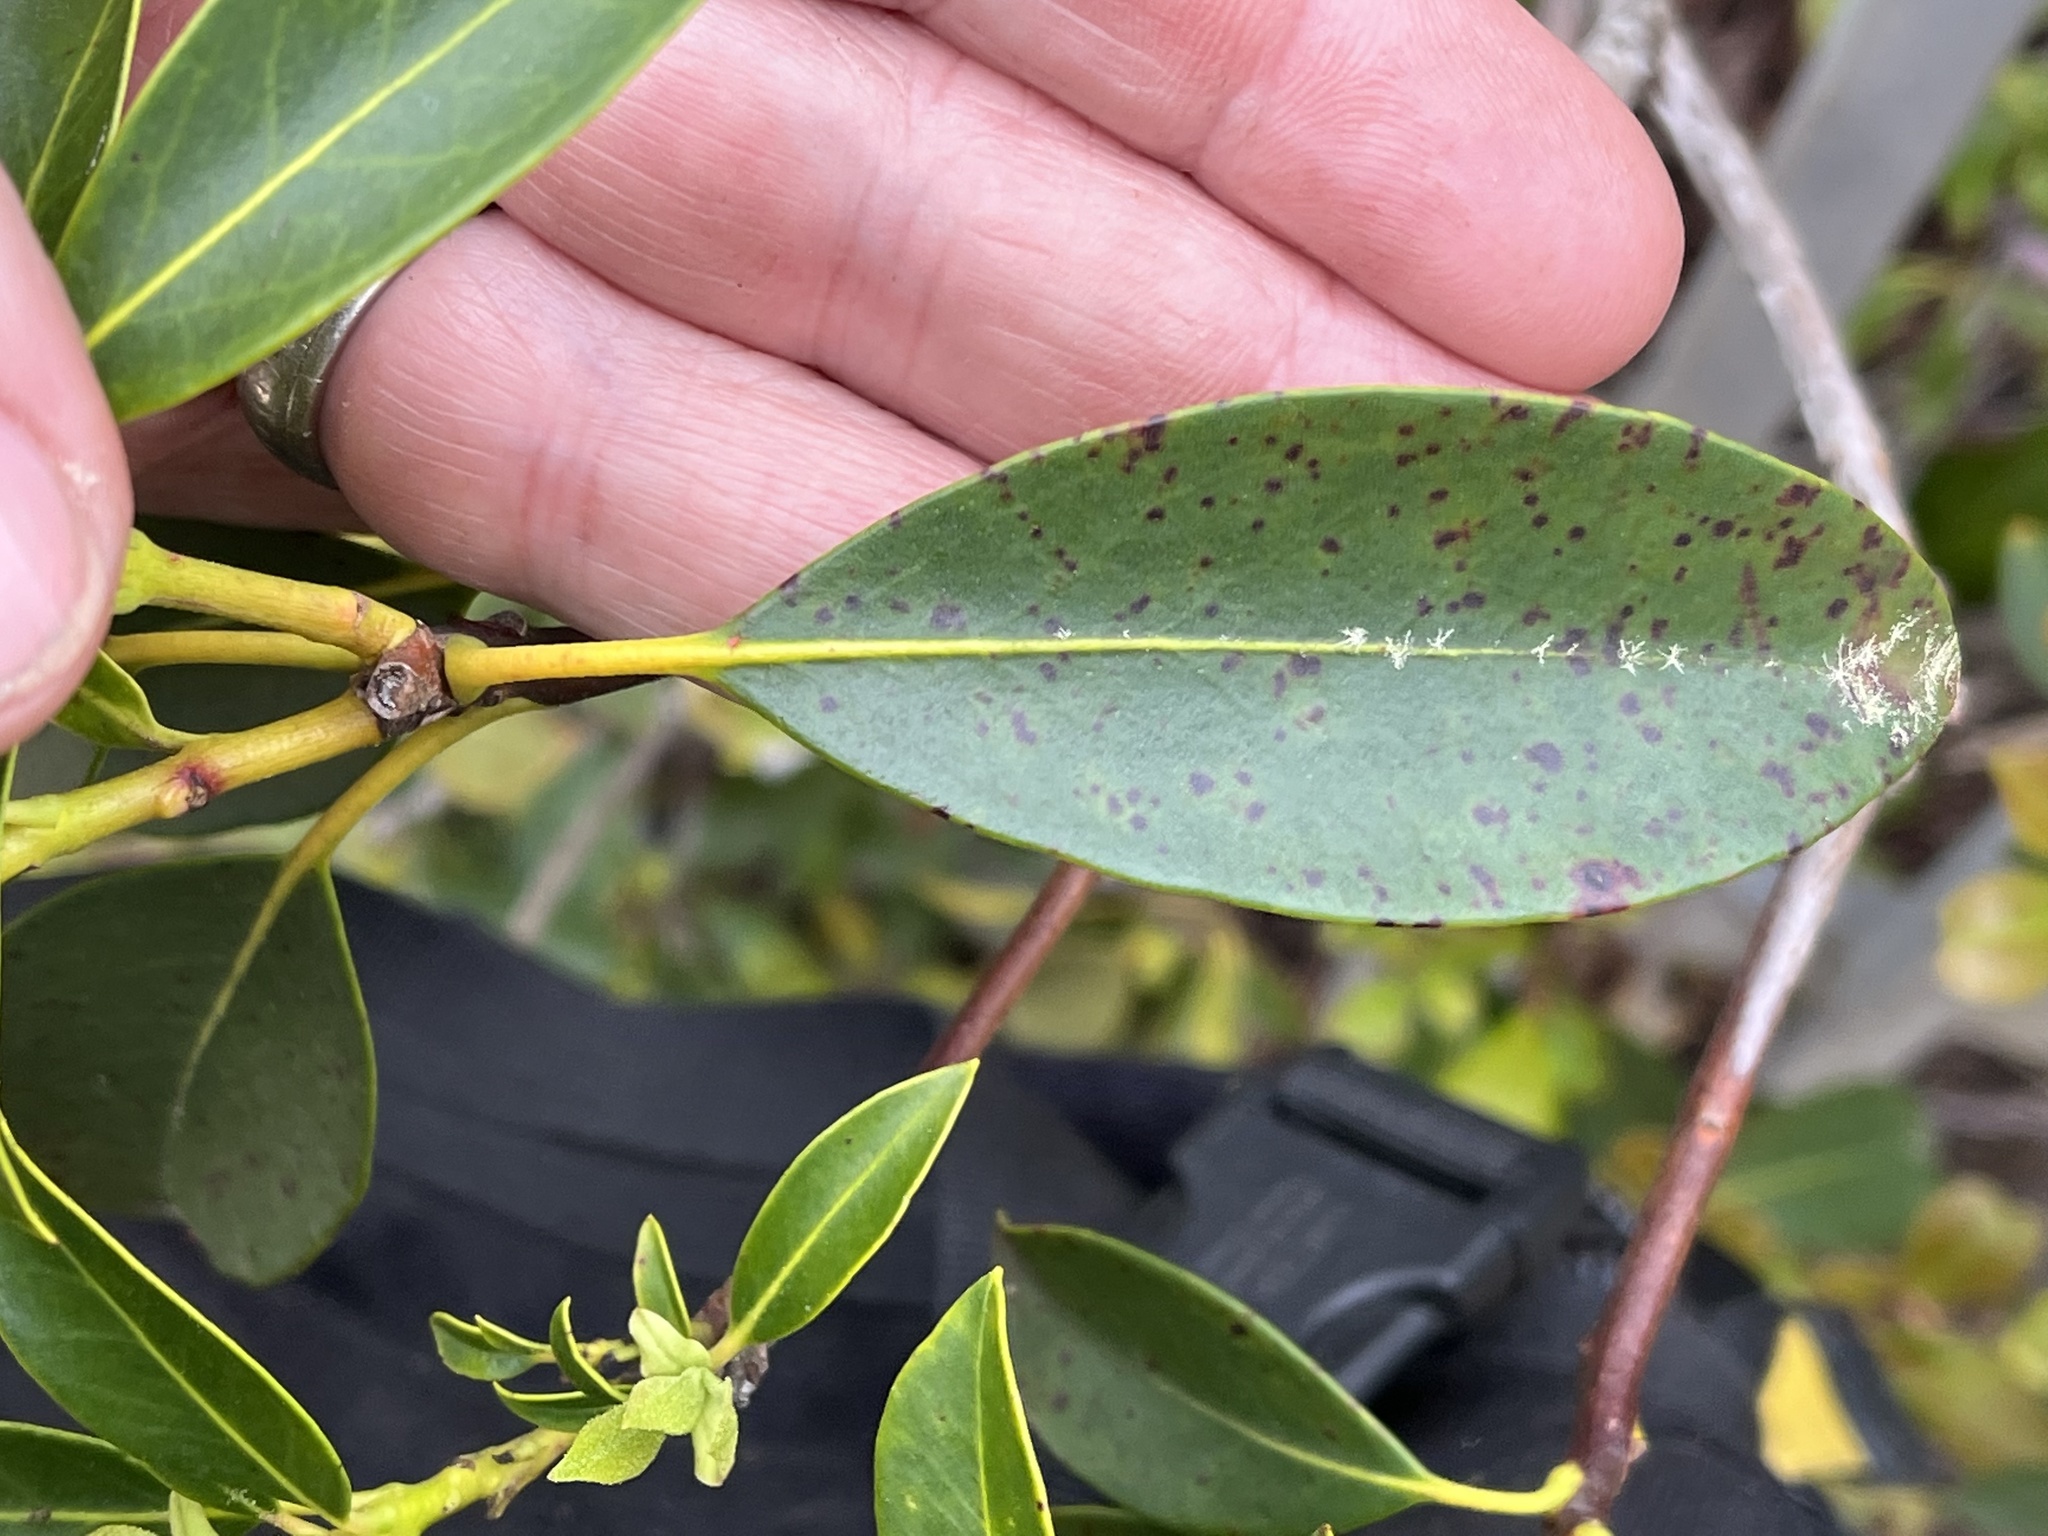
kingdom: Plantae
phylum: Tracheophyta
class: Magnoliopsida
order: Ericales
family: Ericaceae
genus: Kalmia
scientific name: Kalmia latifolia
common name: Mountain-laurel
